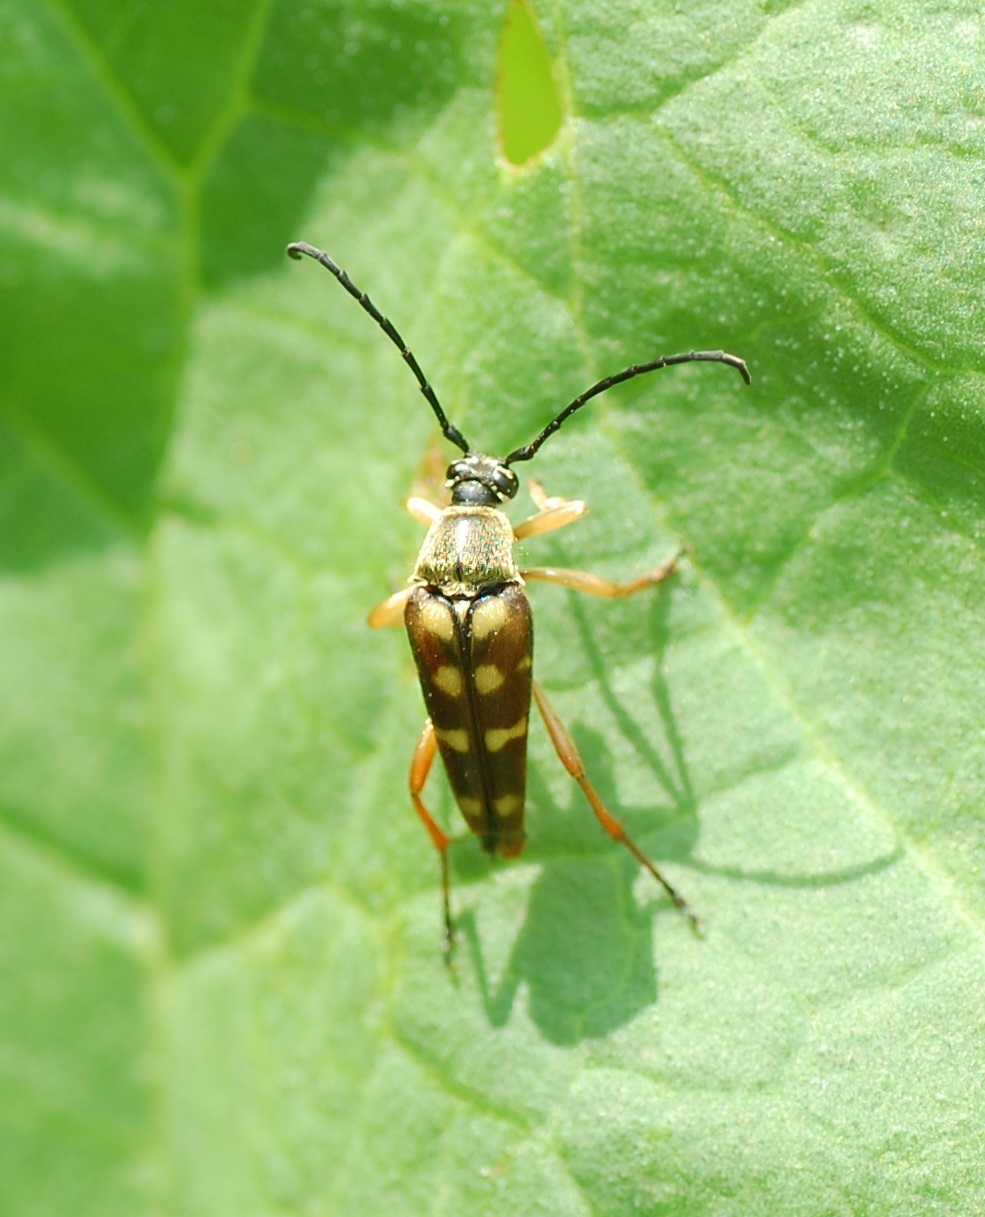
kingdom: Animalia
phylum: Arthropoda
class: Insecta
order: Coleoptera
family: Cerambycidae
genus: Typocerus
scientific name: Typocerus velutinus
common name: Banded longhorn beetle
